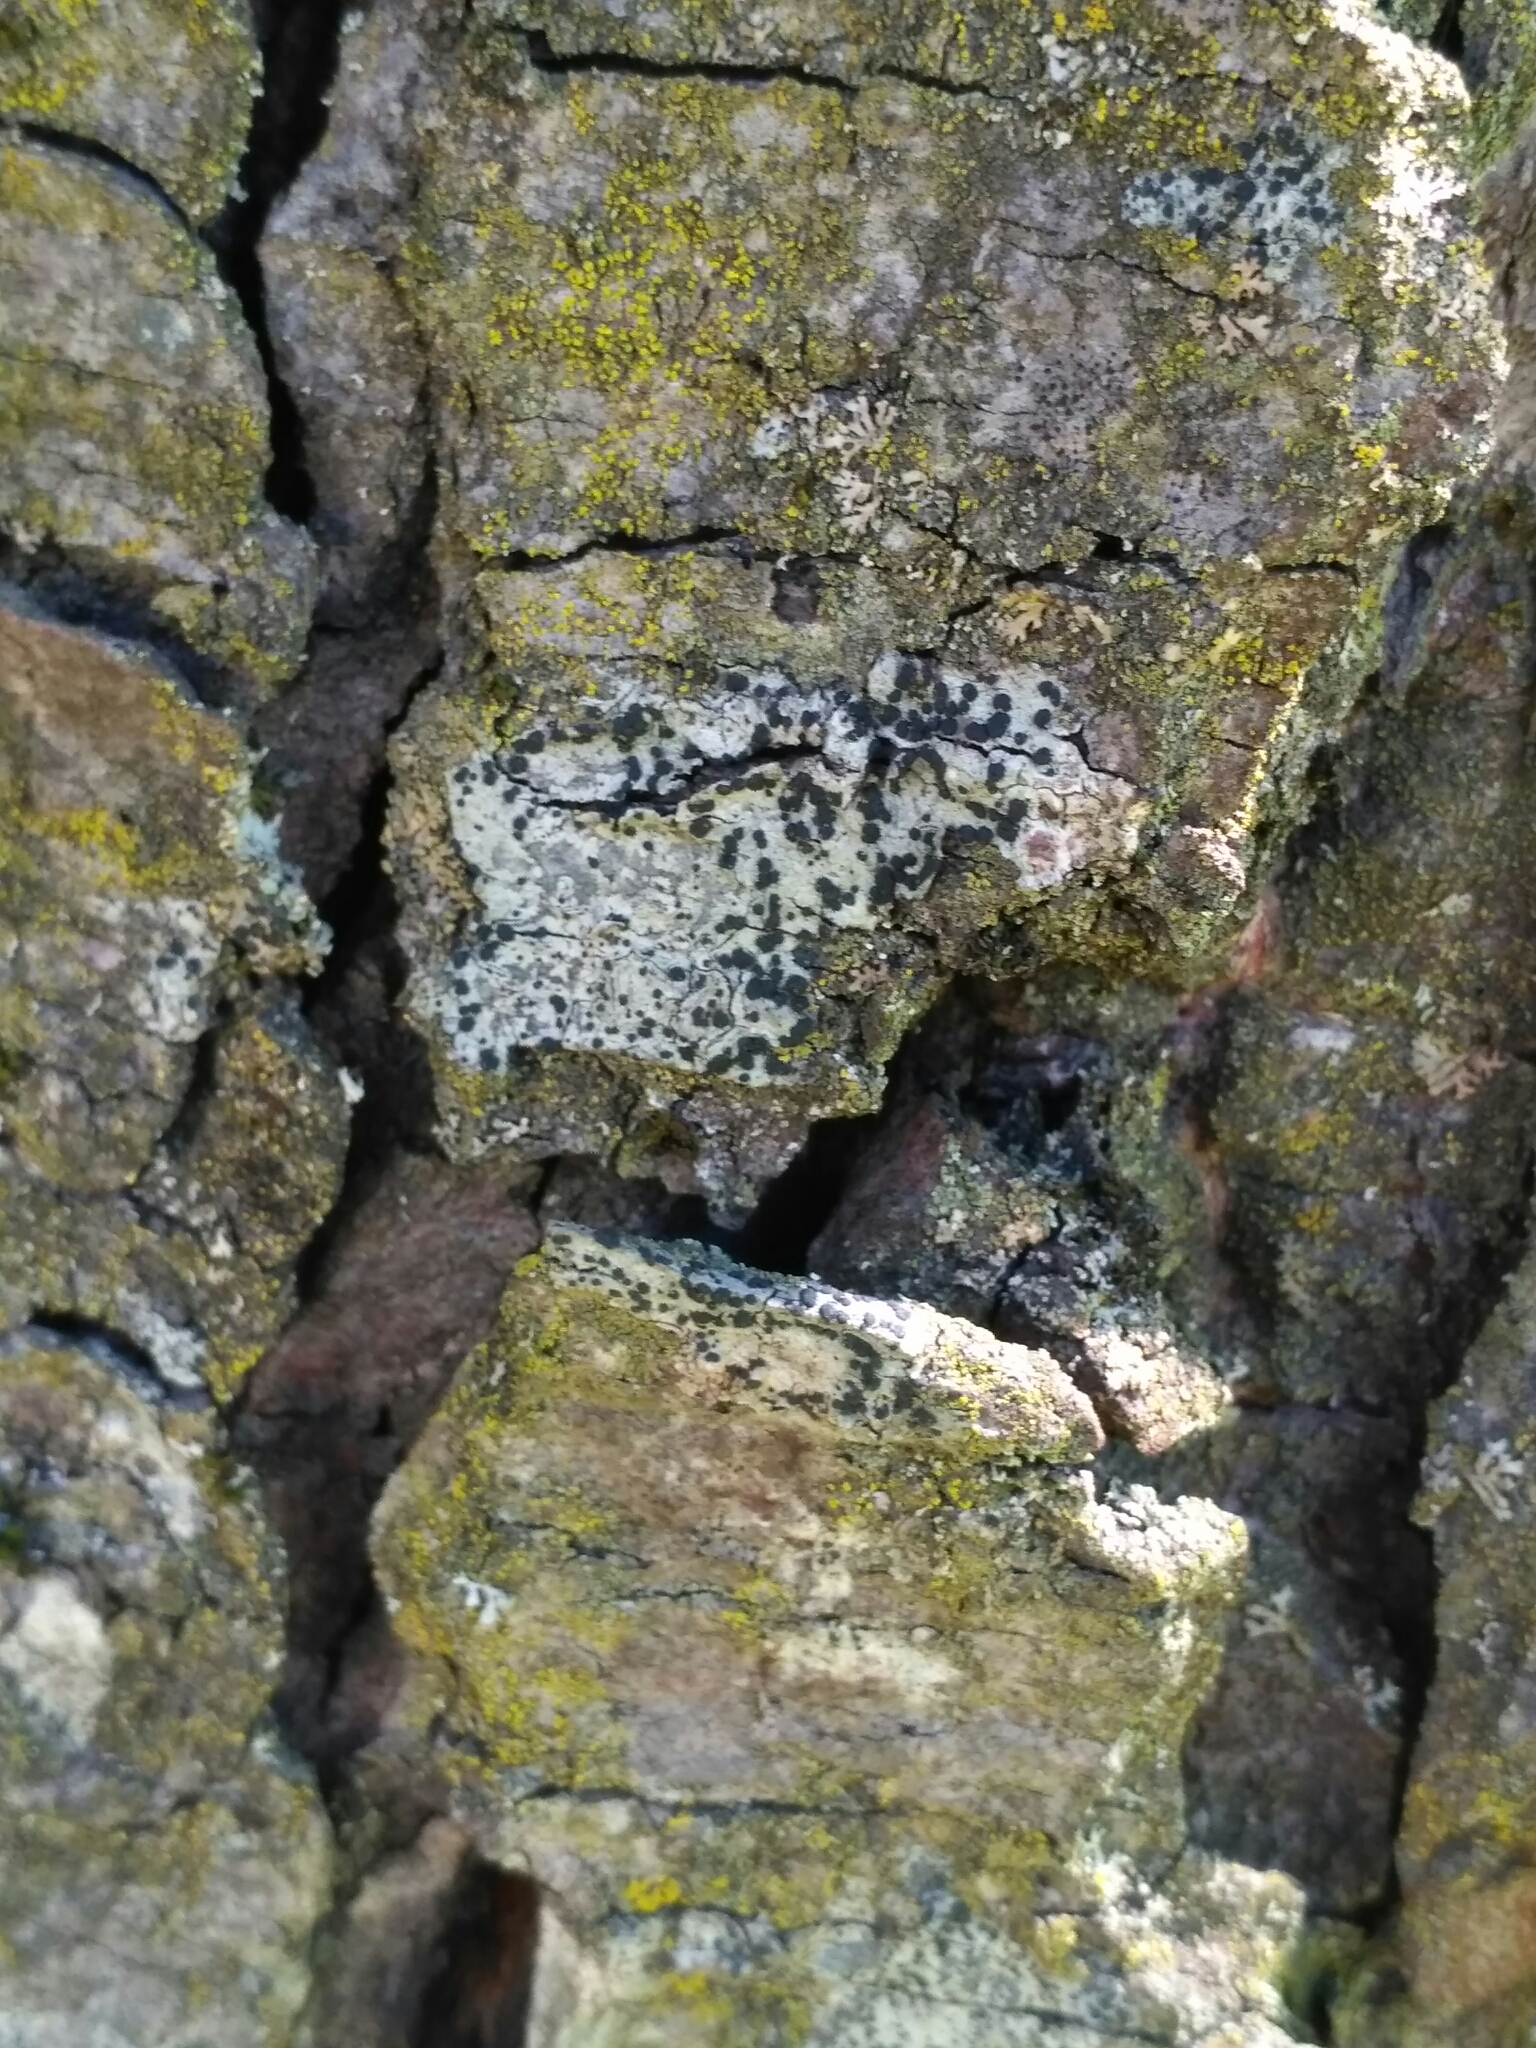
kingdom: Fungi
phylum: Ascomycota
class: Lecanoromycetes
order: Lecanorales
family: Lecanoraceae
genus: Lecidella
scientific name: Lecidella elaeochroma
